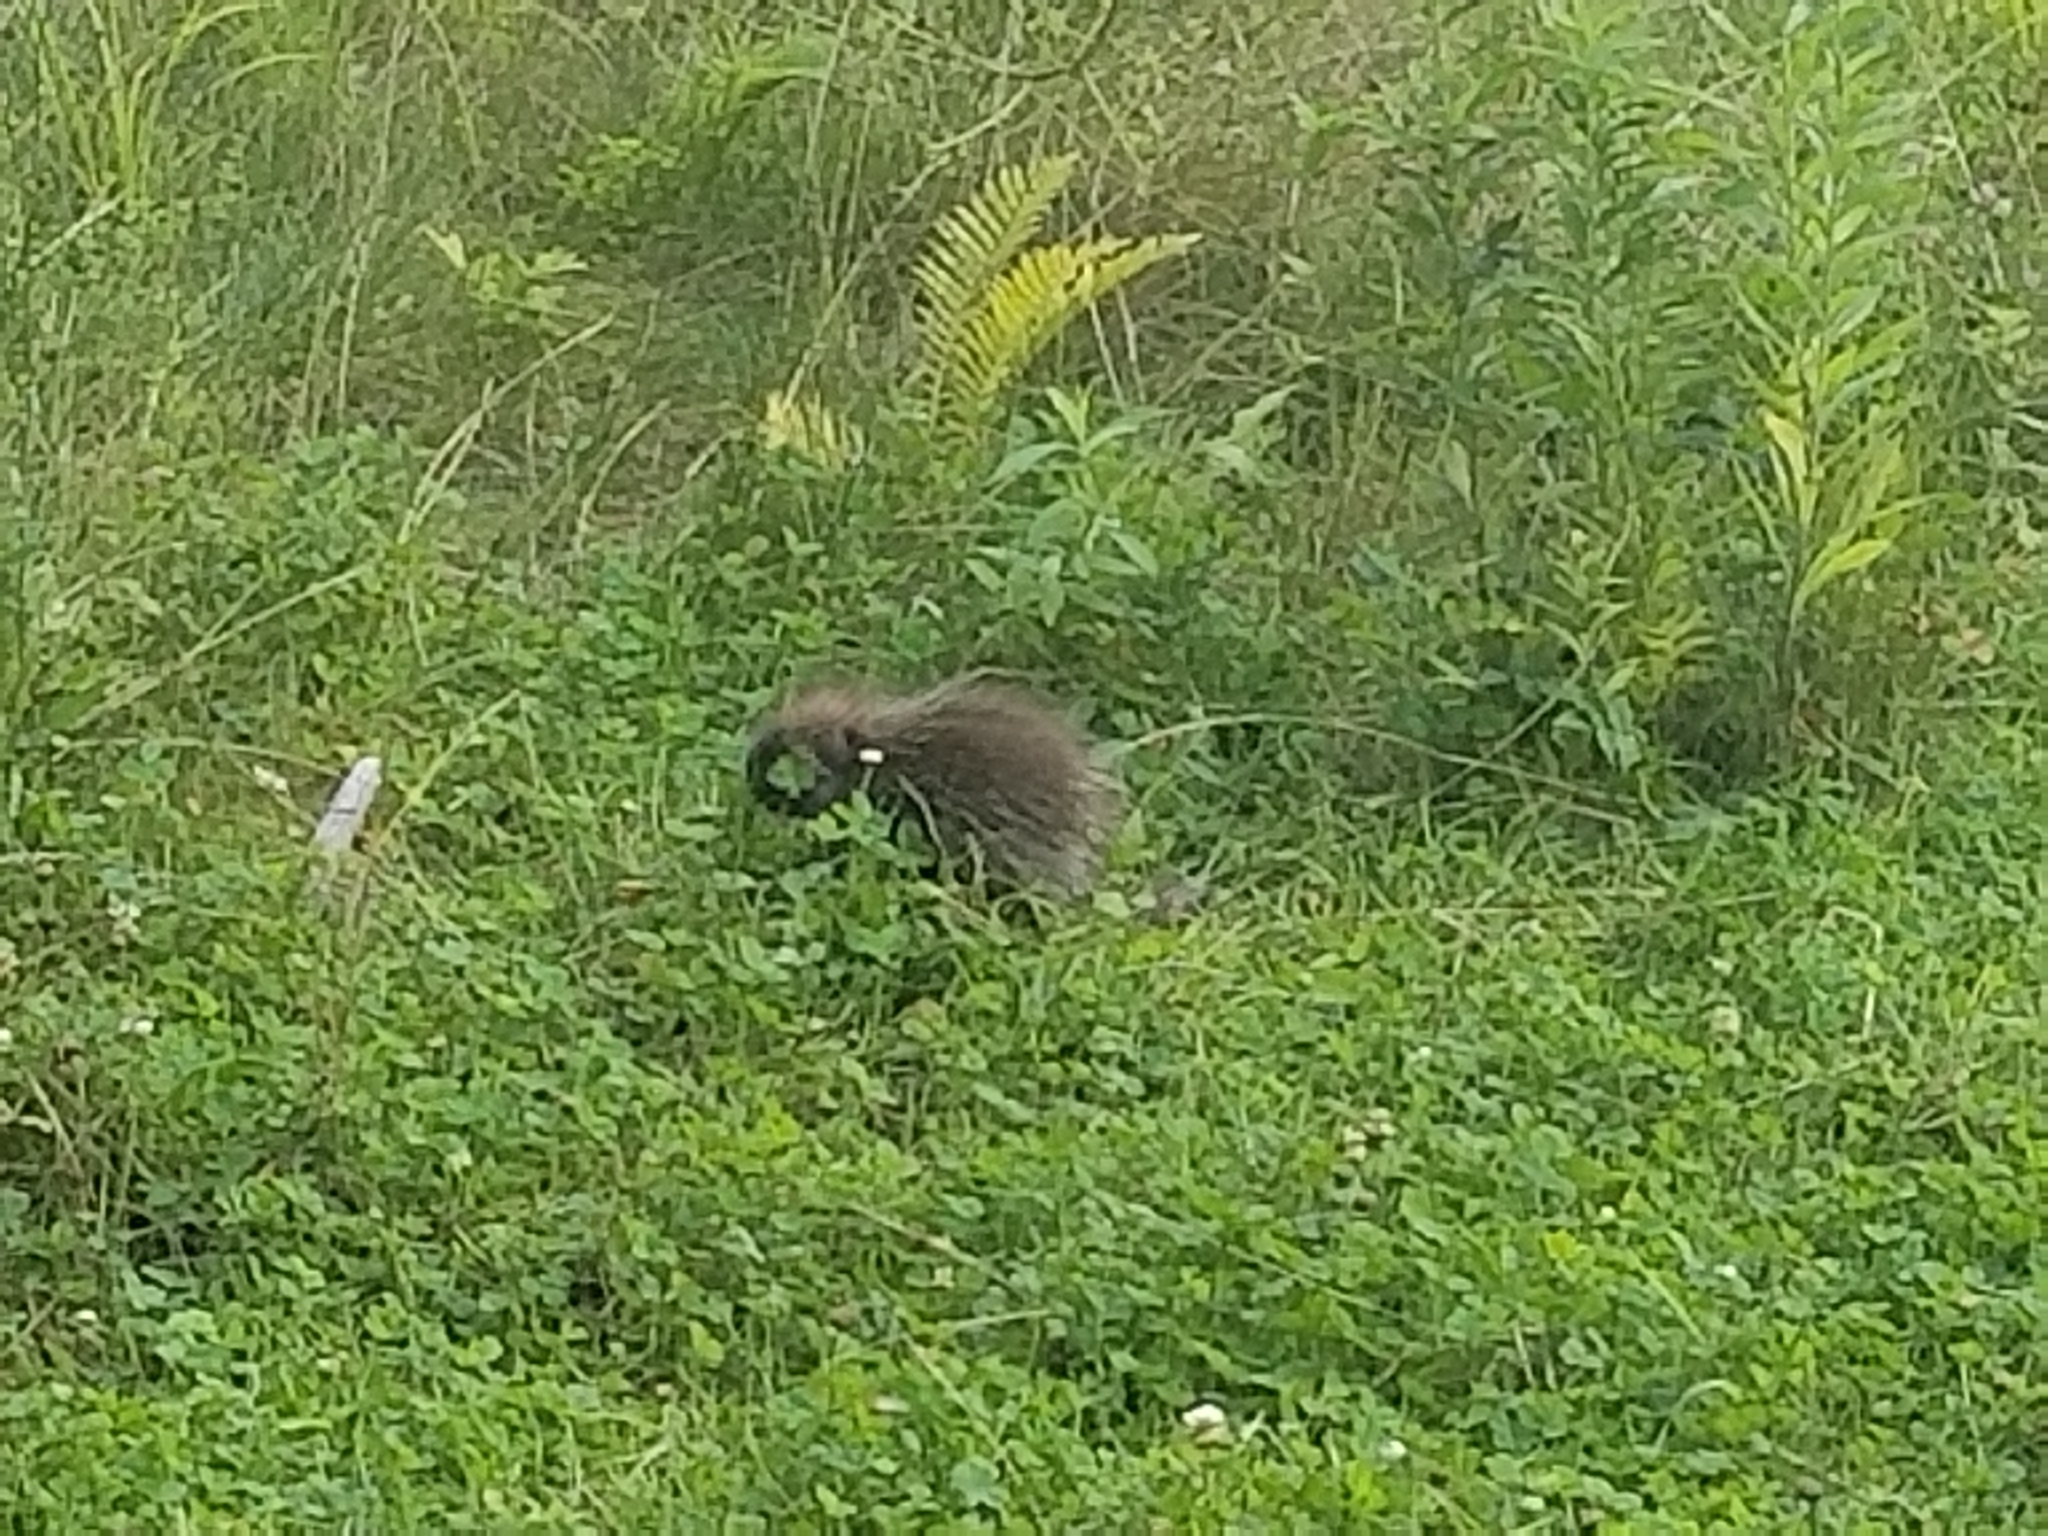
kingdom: Animalia
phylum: Chordata
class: Mammalia
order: Rodentia
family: Erethizontidae
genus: Erethizon
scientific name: Erethizon dorsatus
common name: North american porcupine
